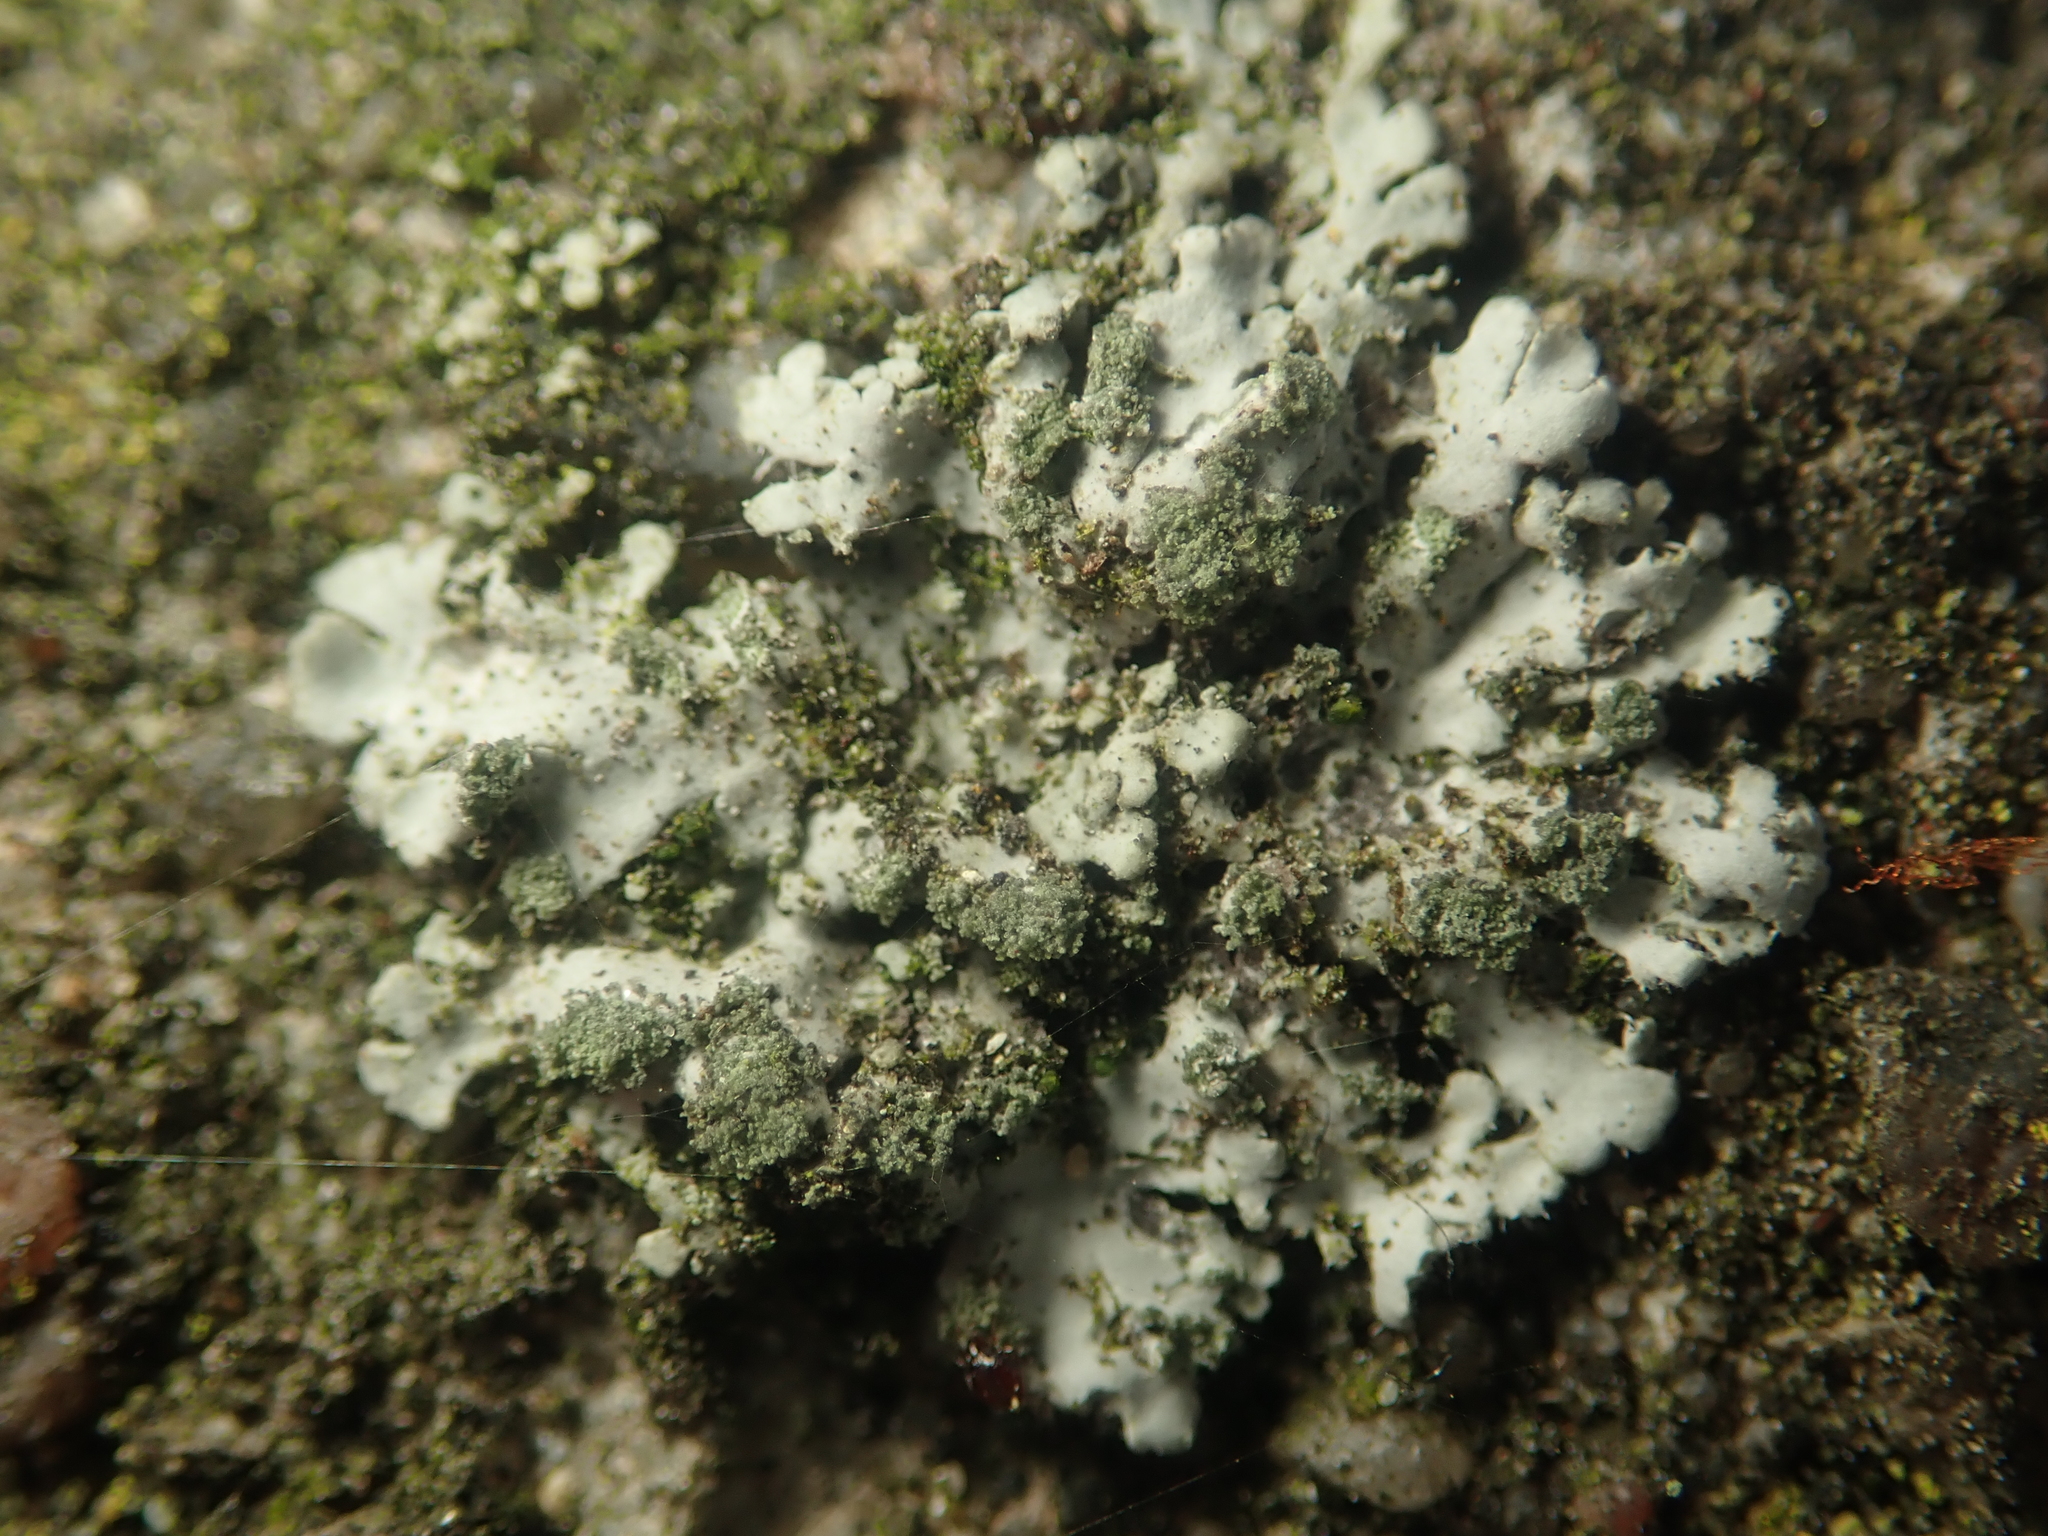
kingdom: Fungi
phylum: Ascomycota
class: Lecanoromycetes
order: Caliciales
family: Physciaceae
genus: Phaeophyscia
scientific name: Phaeophyscia orbicularis
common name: Mealy shadow lichen
